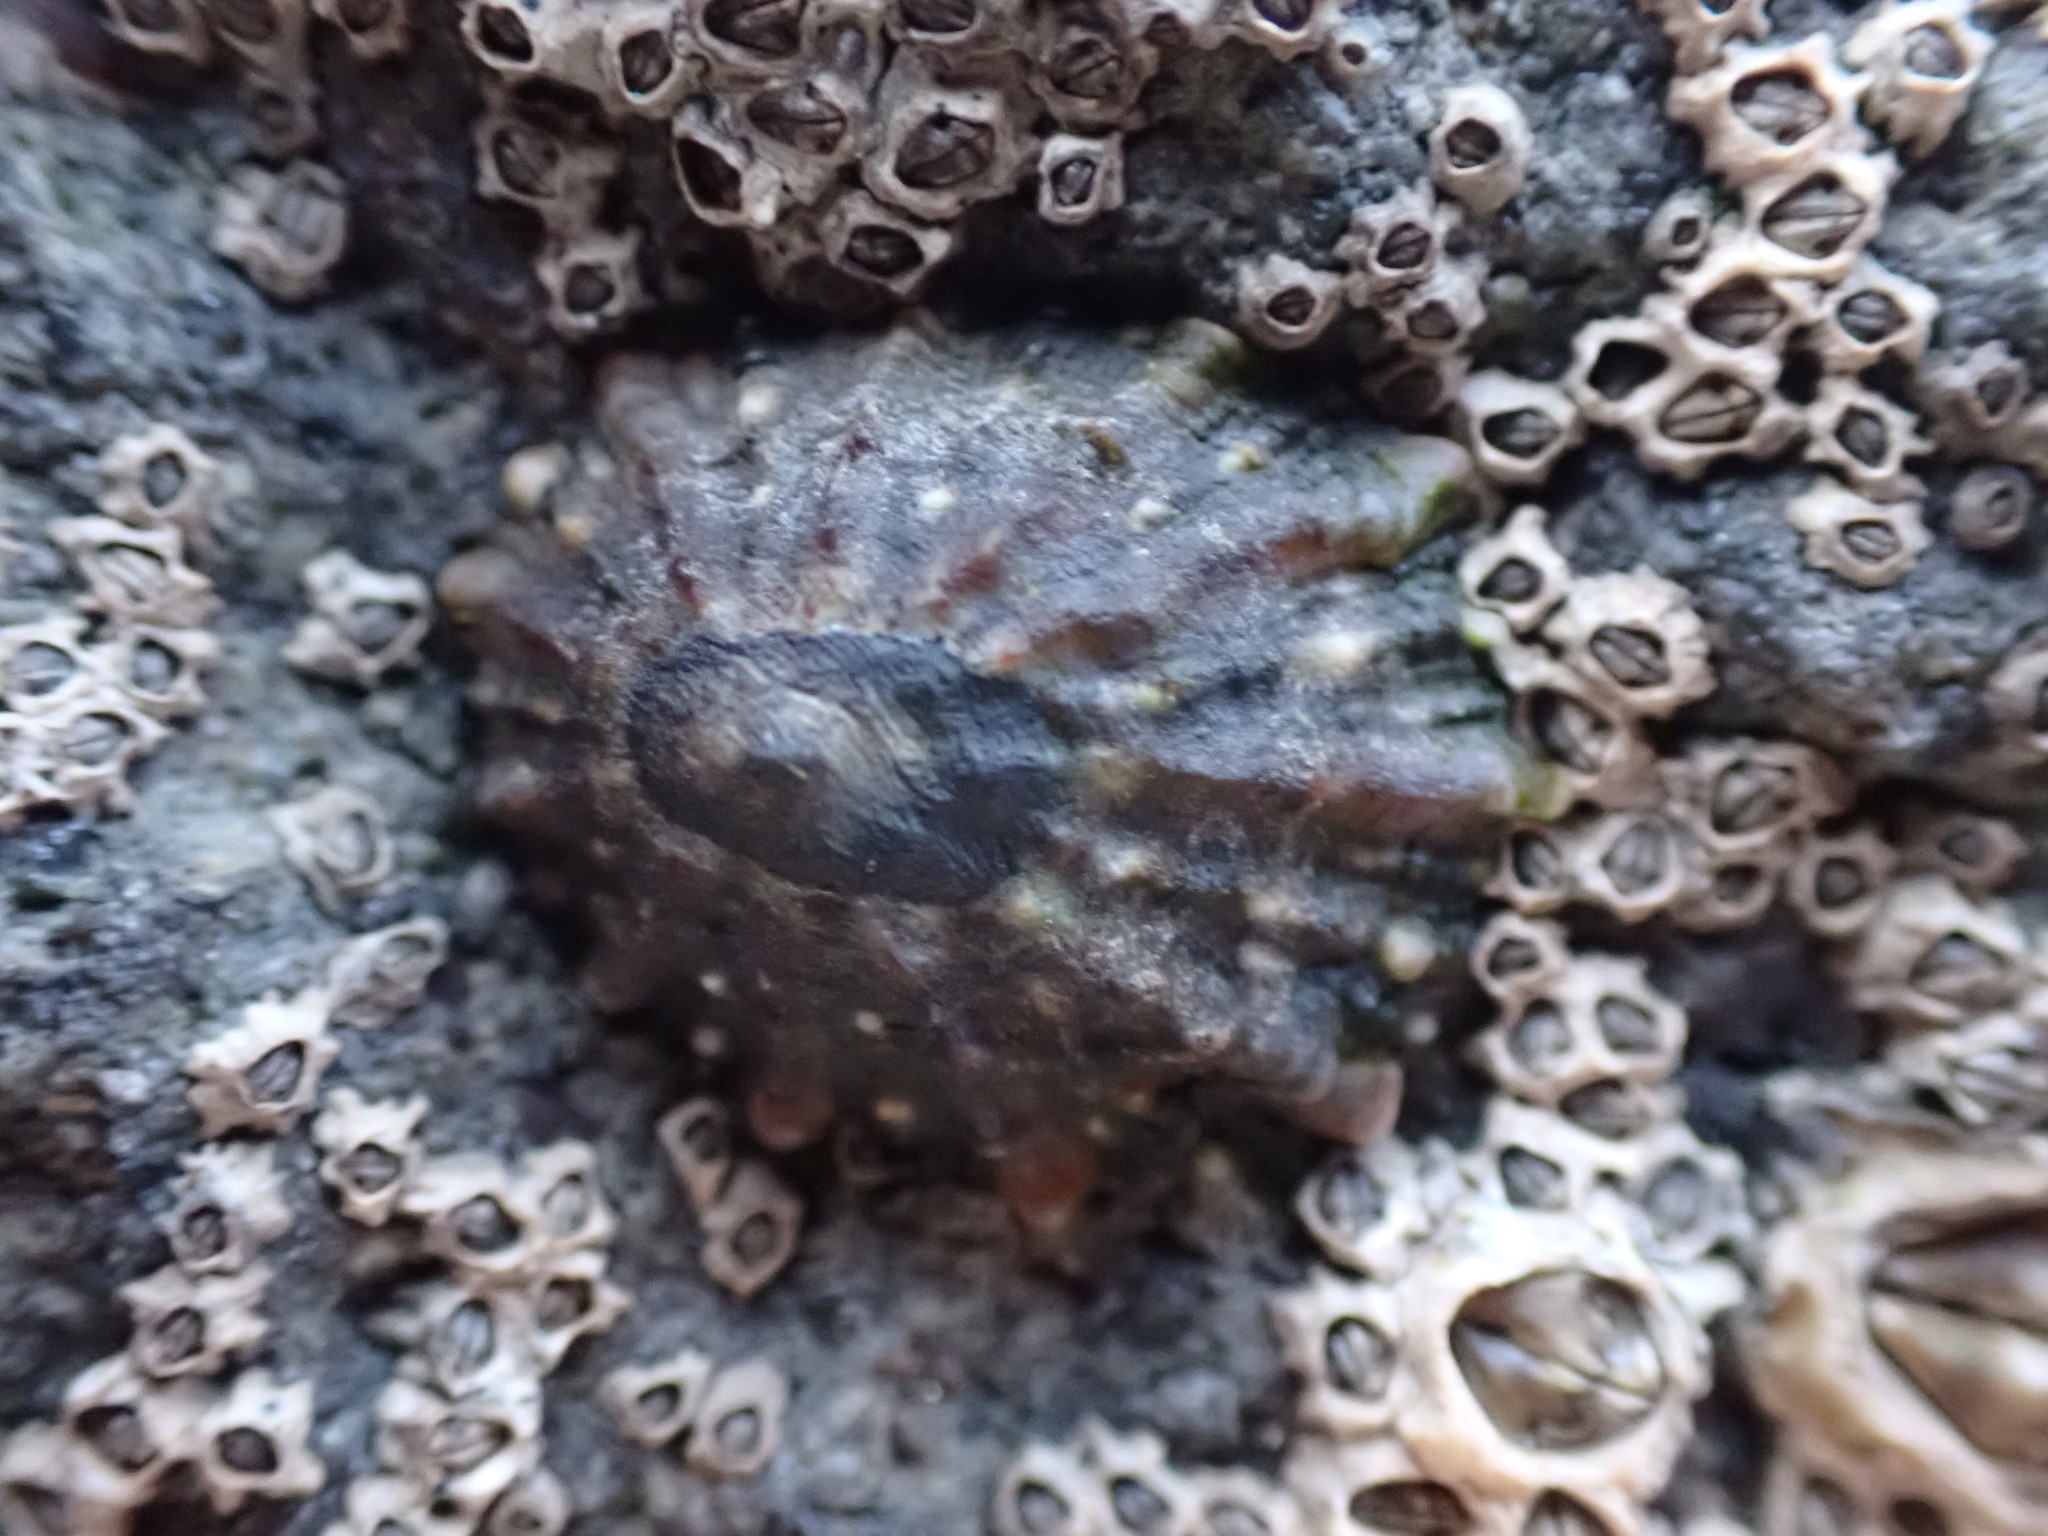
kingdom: Animalia
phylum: Mollusca
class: Gastropoda
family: Nacellidae
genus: Cellana
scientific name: Cellana ornata
